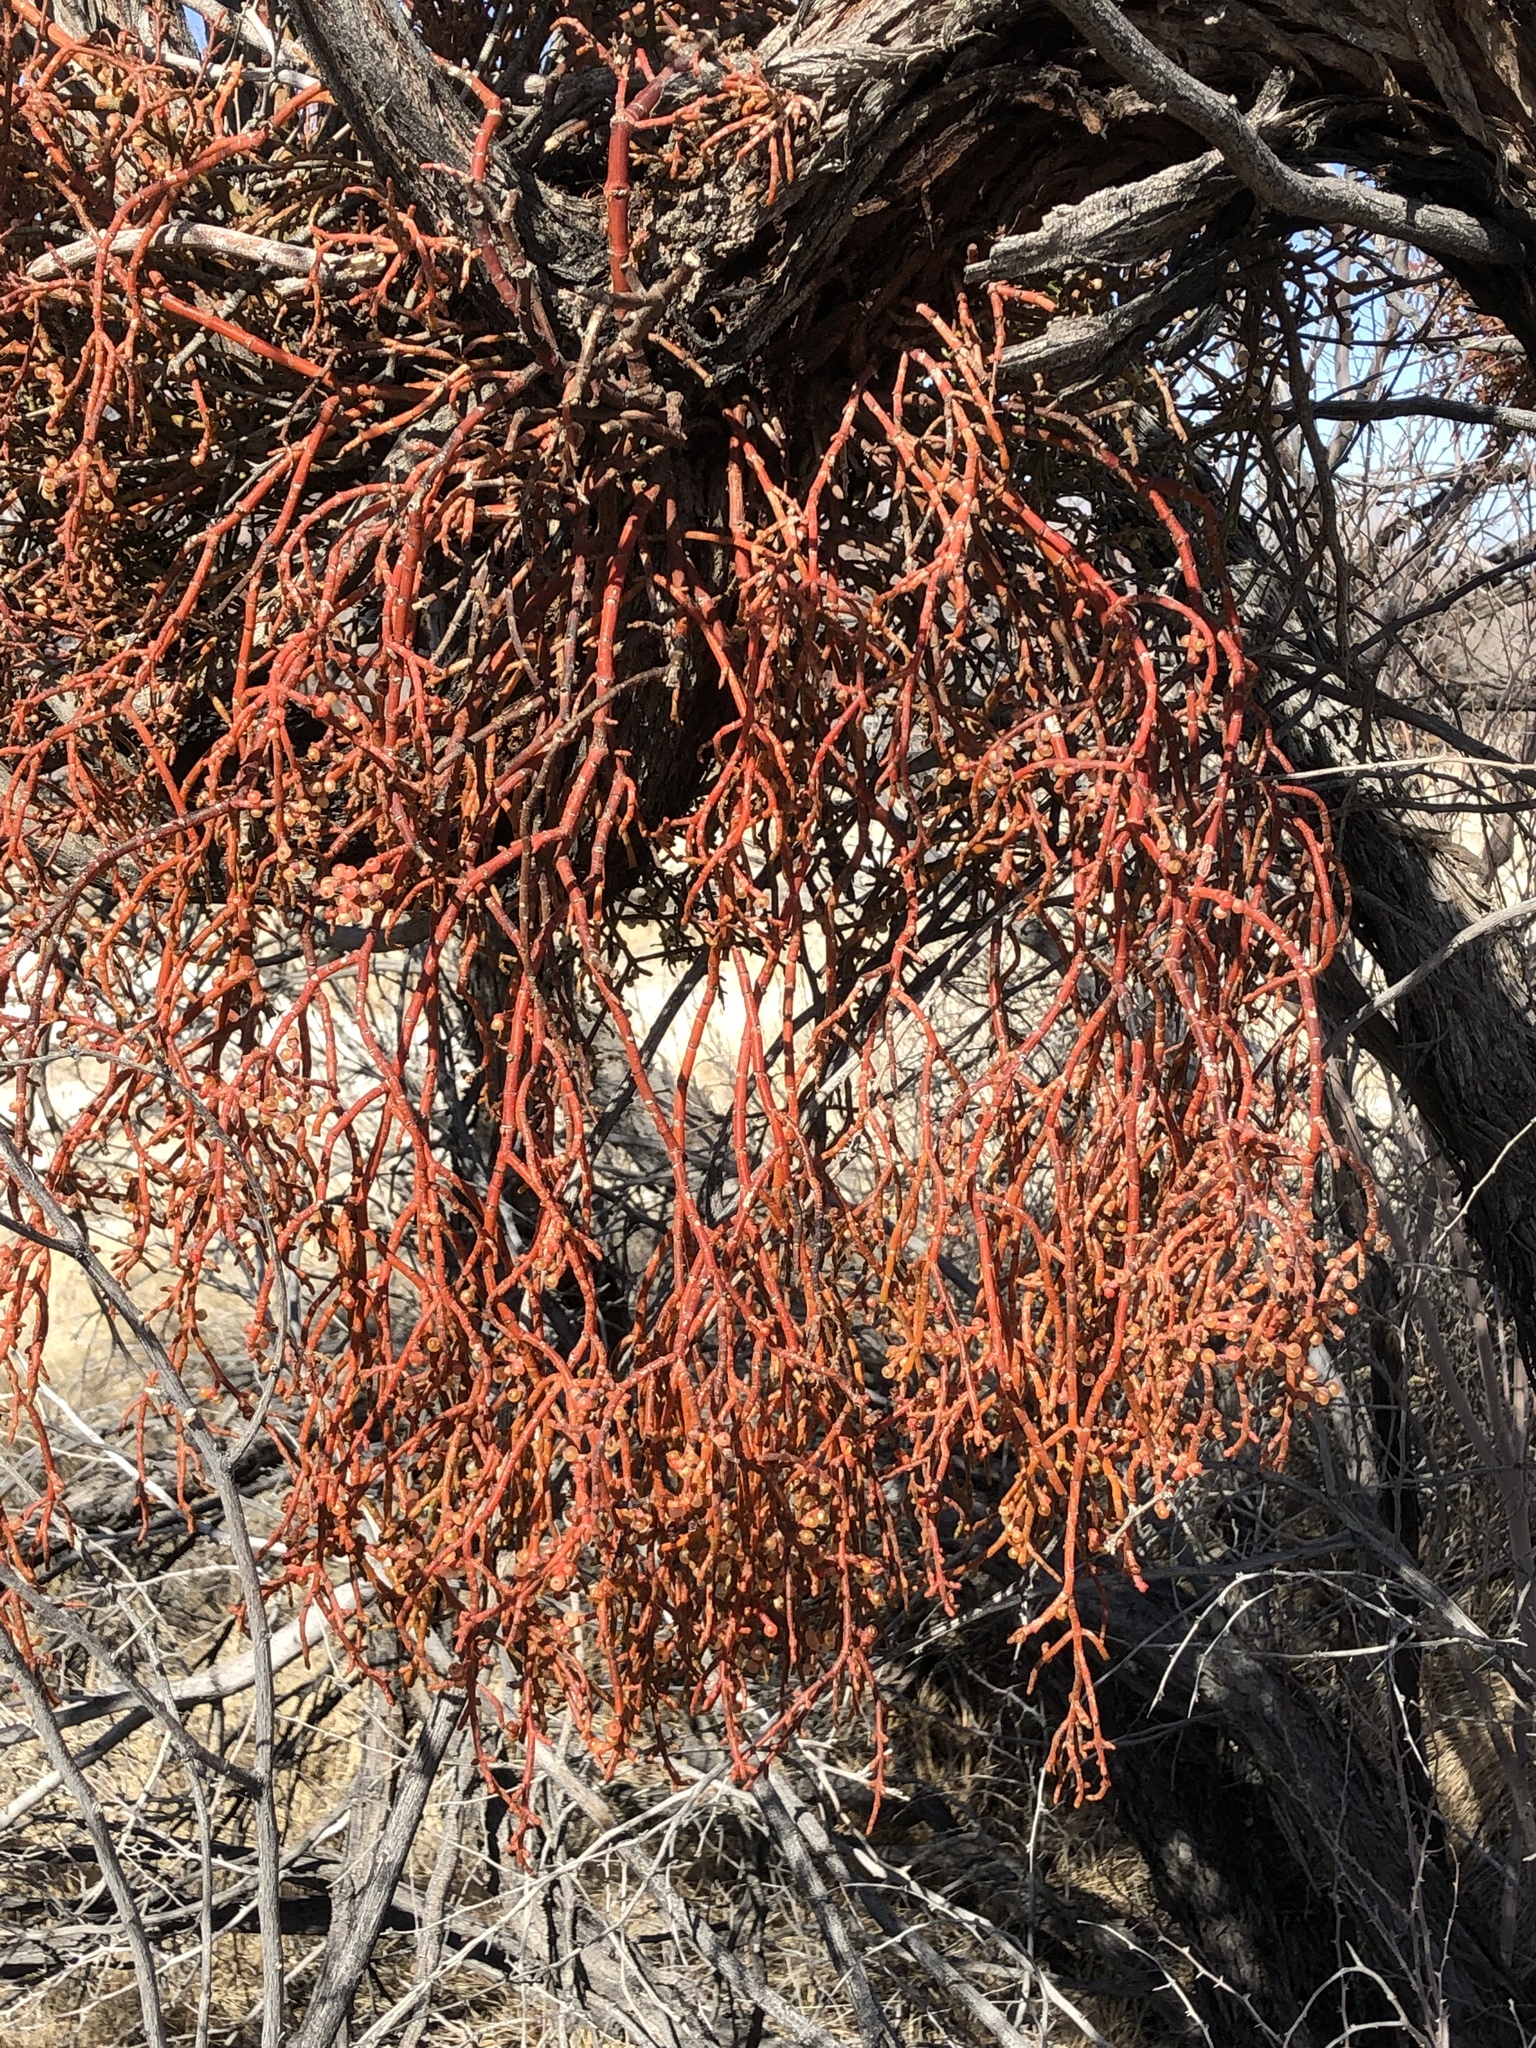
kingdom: Plantae
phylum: Tracheophyta
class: Magnoliopsida
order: Santalales
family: Viscaceae
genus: Phoradendron
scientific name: Phoradendron californicum
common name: Acacia mistletoe
